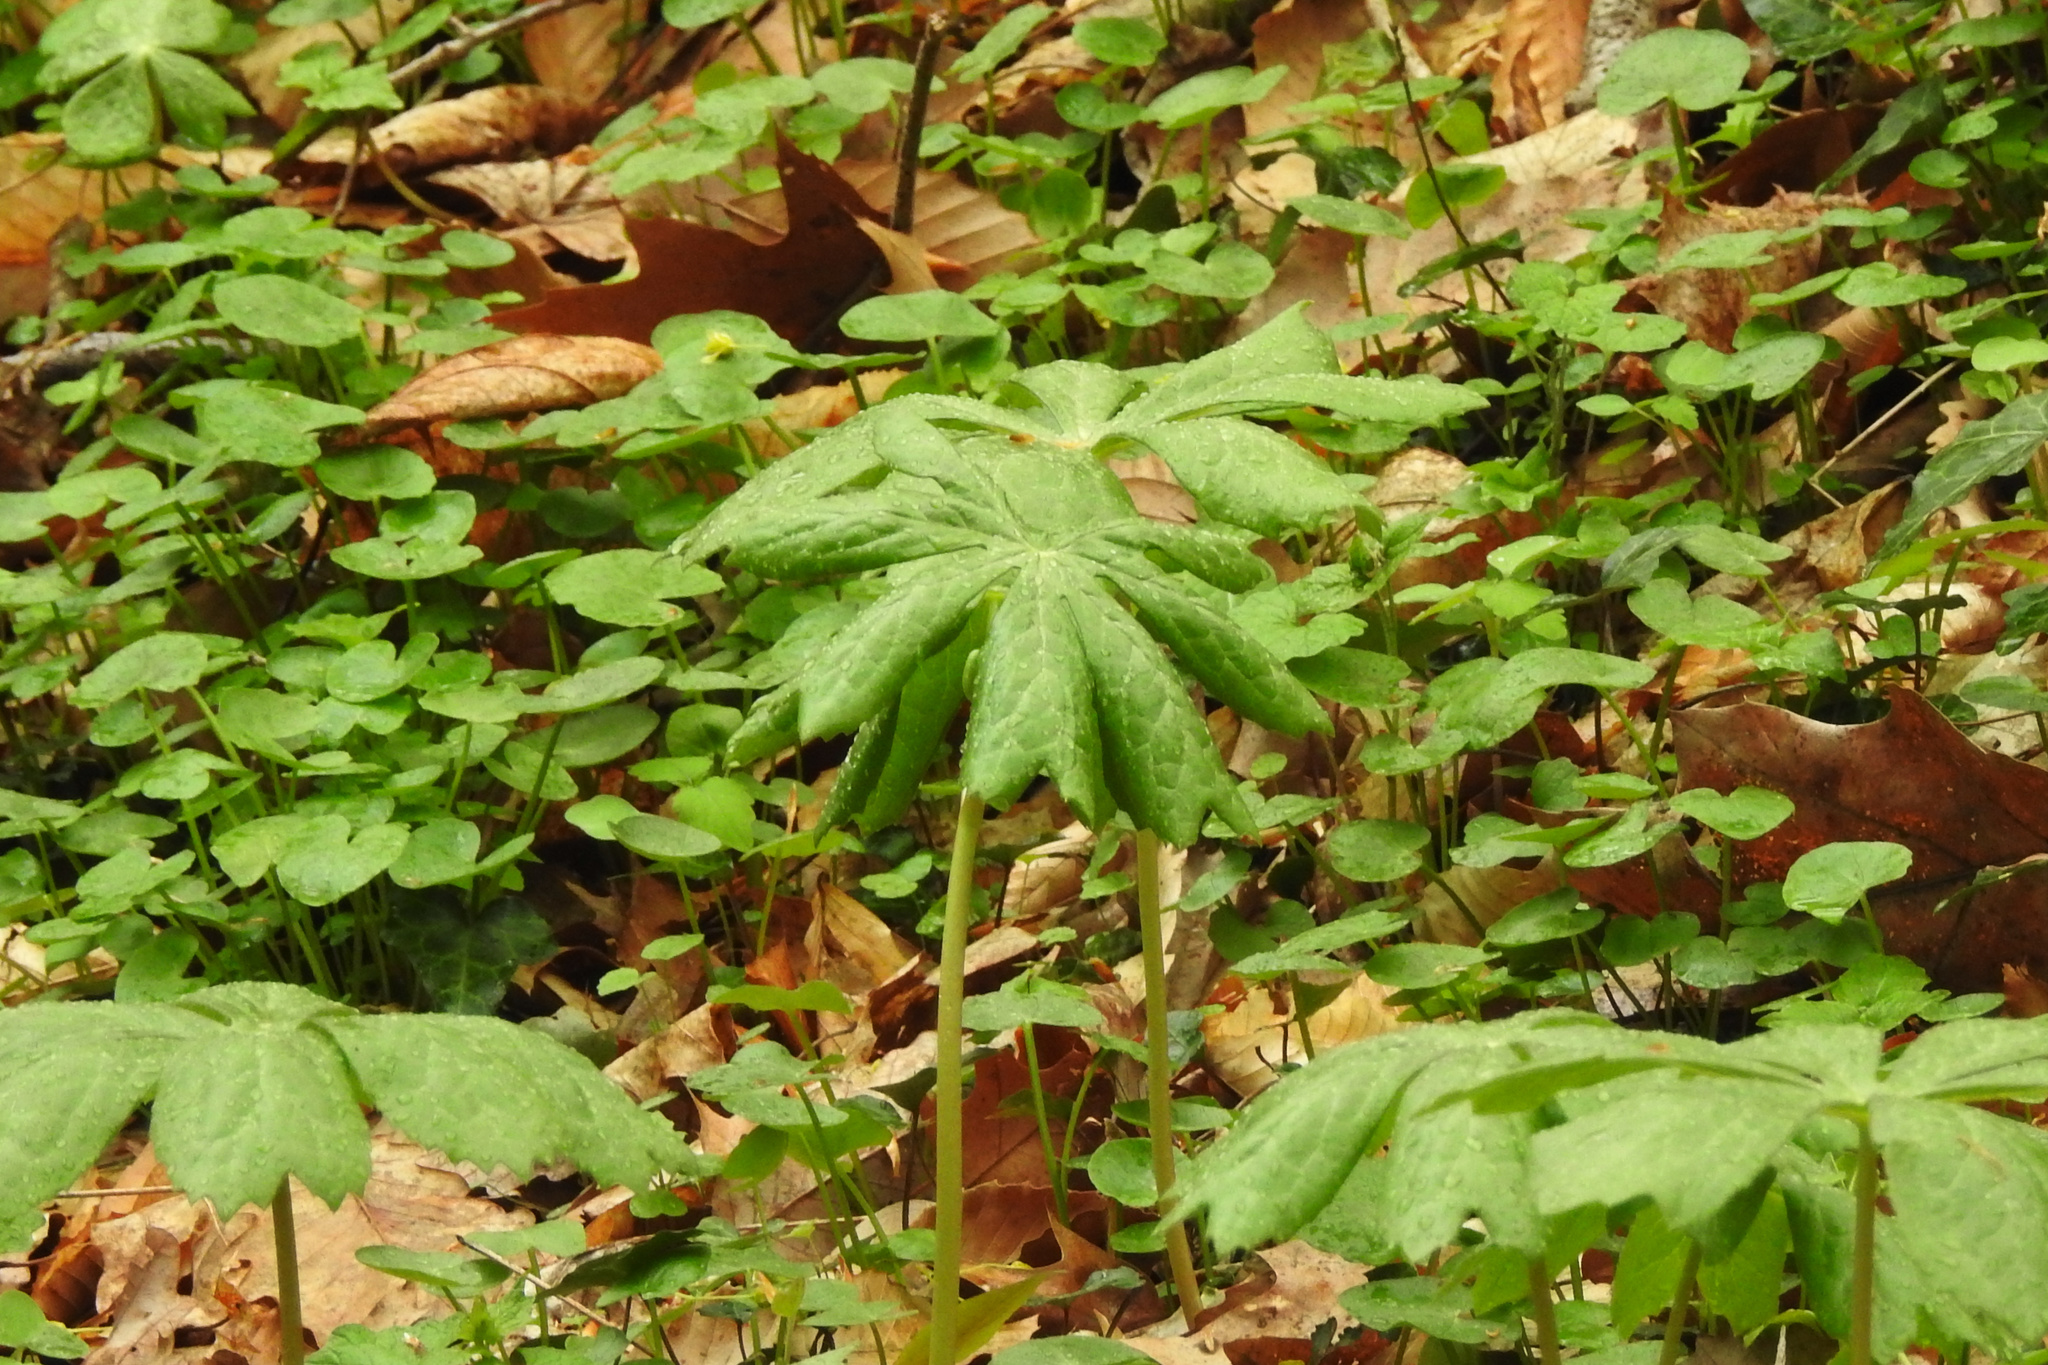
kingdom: Plantae
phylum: Tracheophyta
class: Magnoliopsida
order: Ranunculales
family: Berberidaceae
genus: Podophyllum
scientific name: Podophyllum peltatum
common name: Wild mandrake
